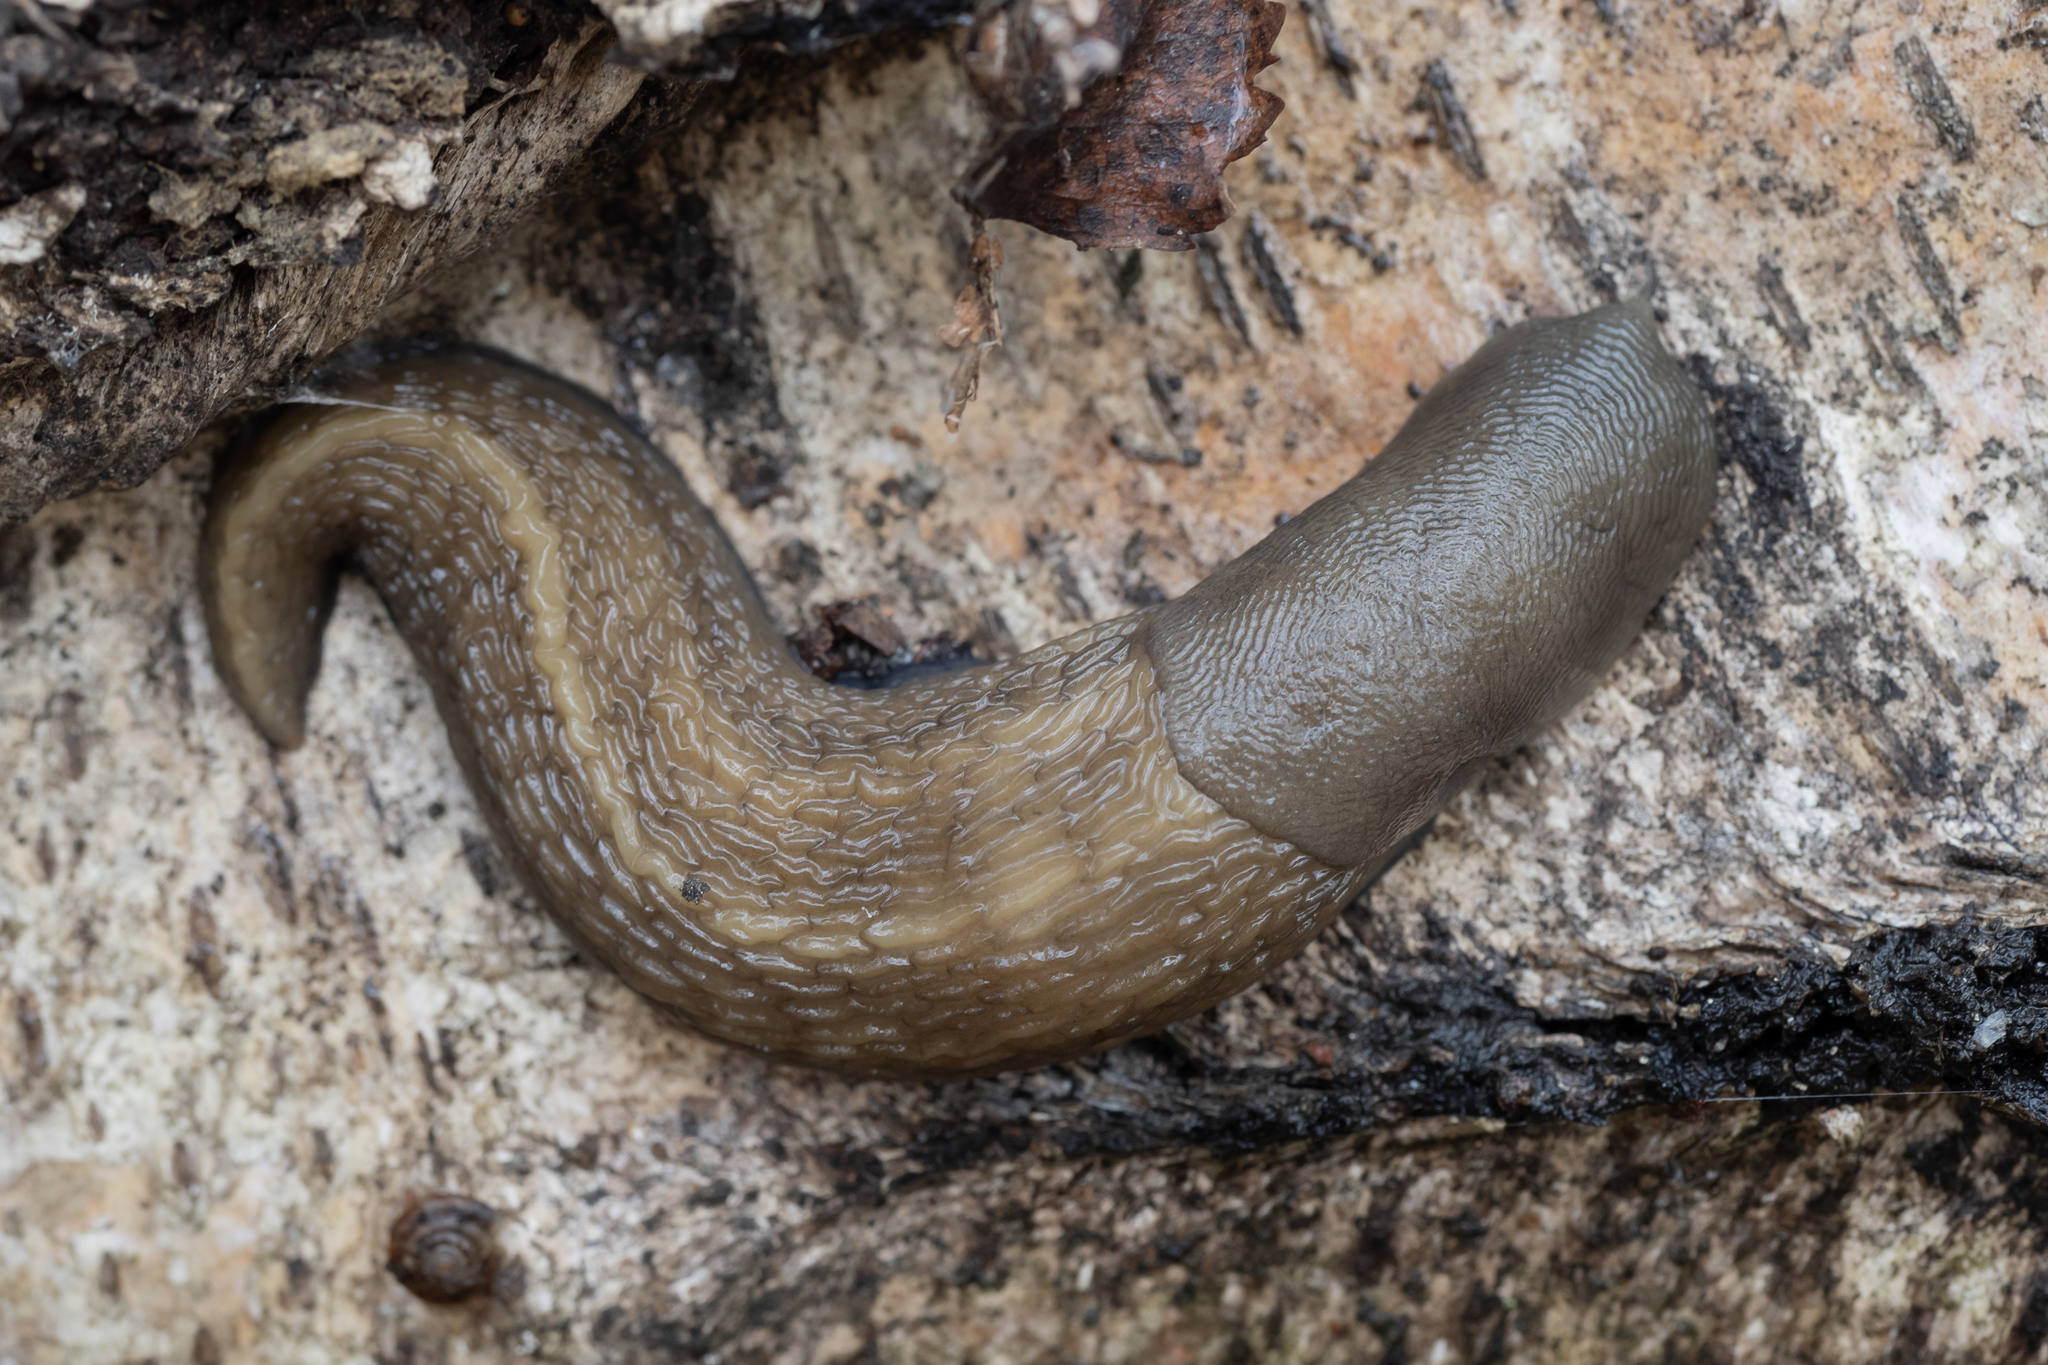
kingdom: Animalia
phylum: Mollusca
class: Gastropoda
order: Stylommatophora
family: Limacidae
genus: Limax
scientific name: Limax cinereoniger
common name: Ash-black slug
